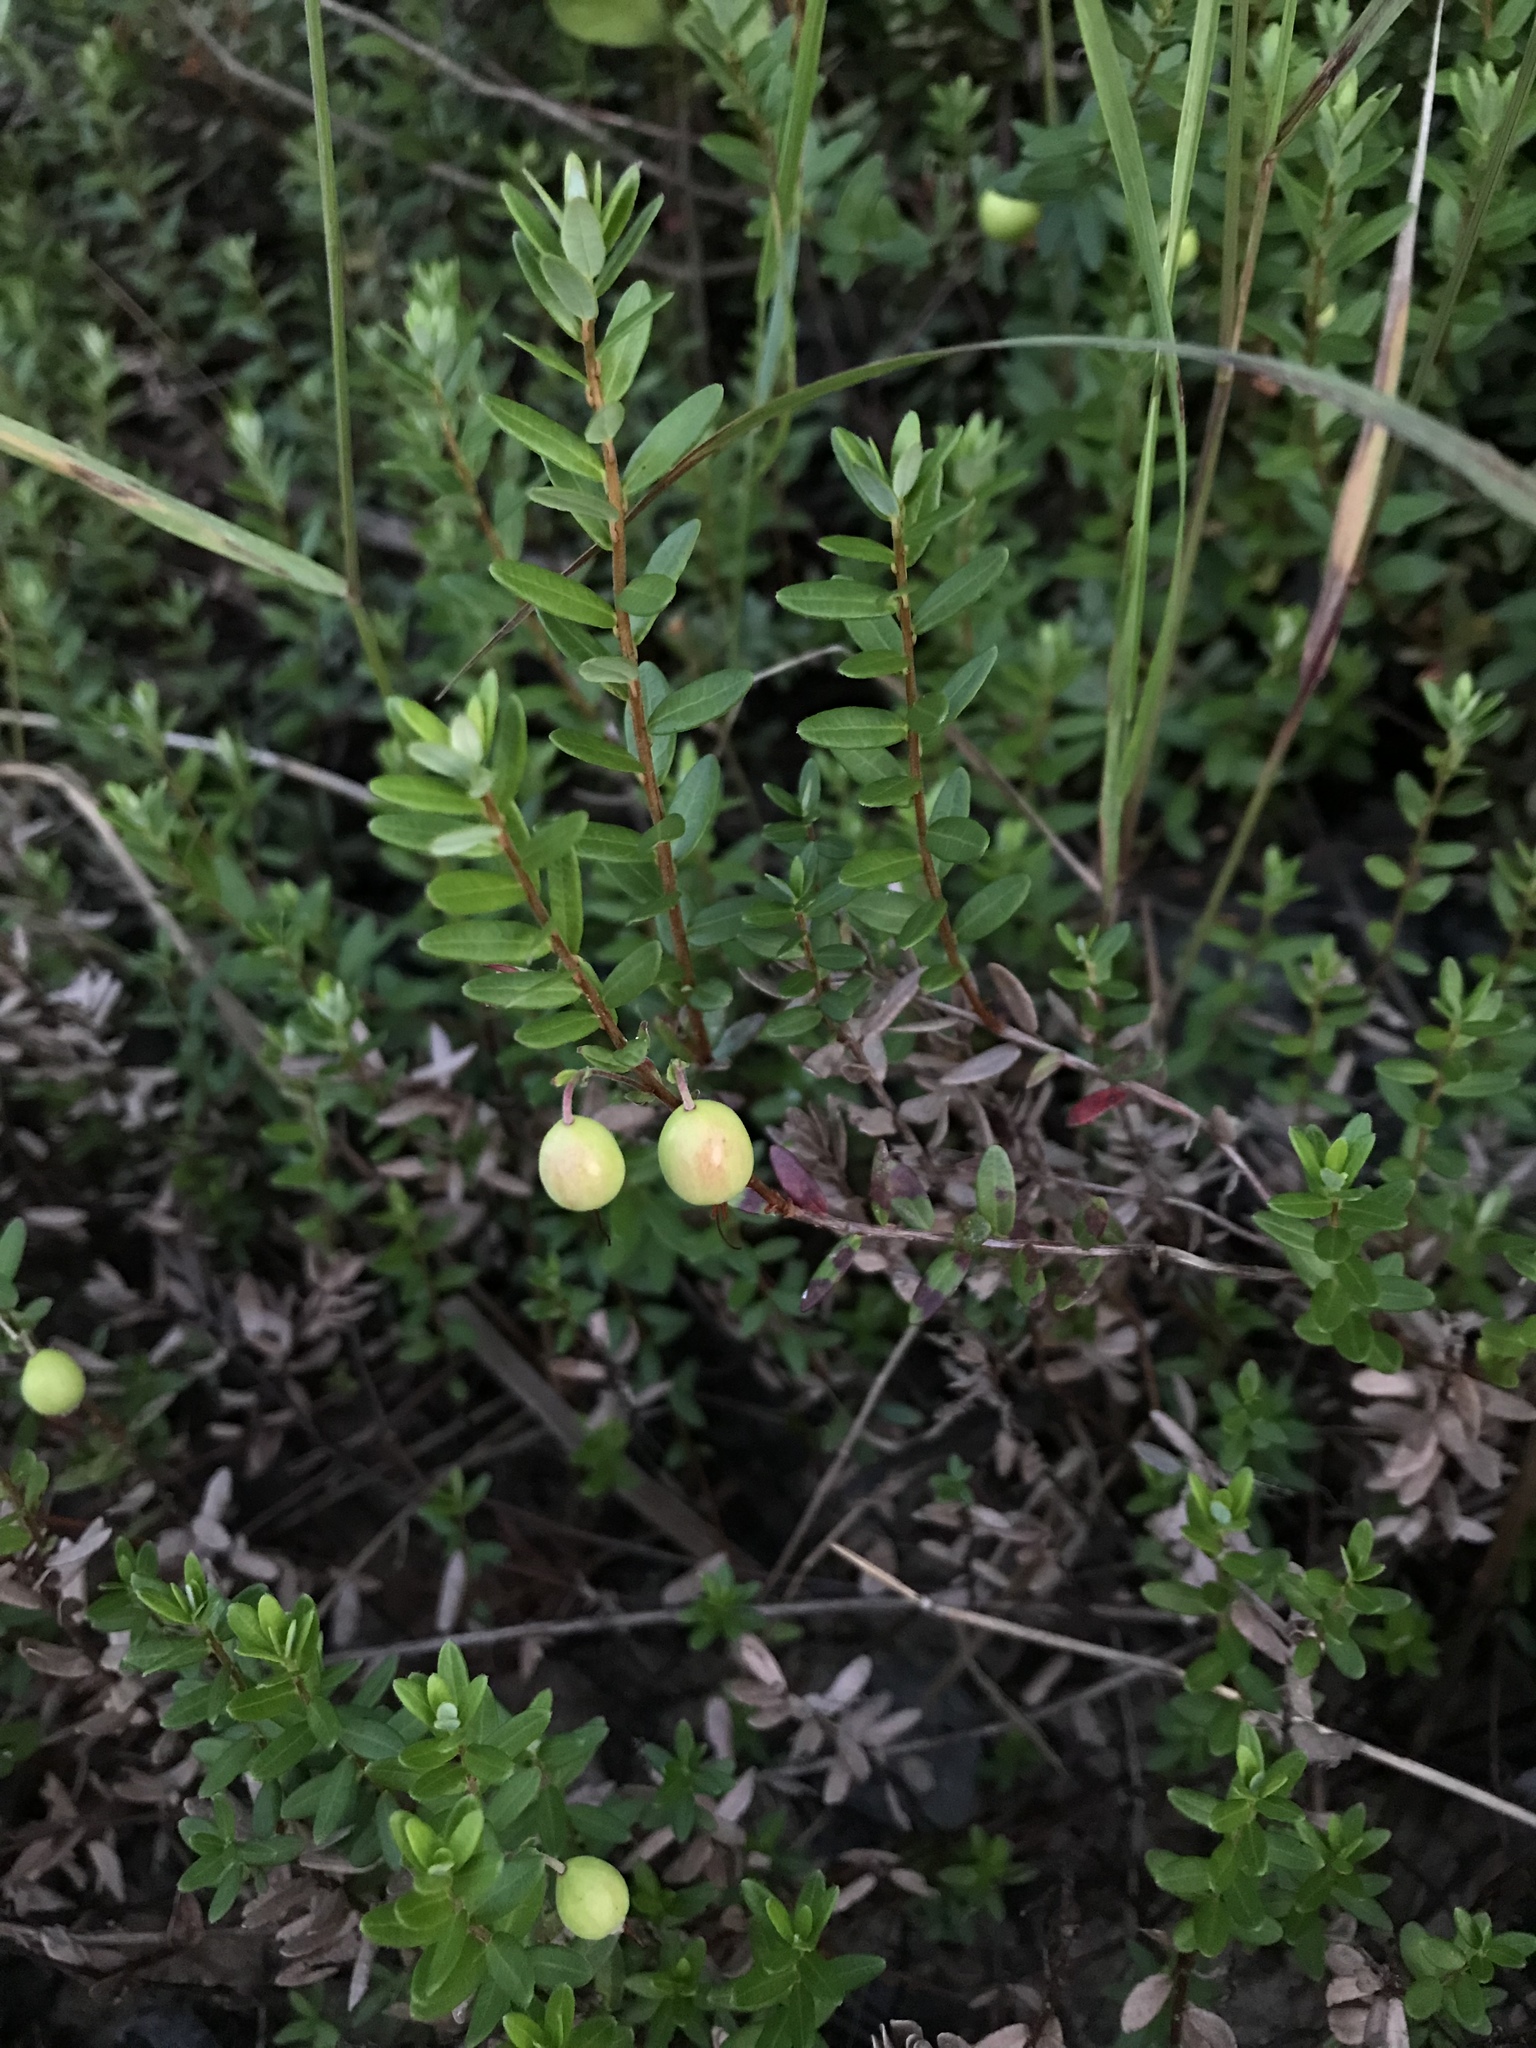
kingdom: Plantae
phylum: Tracheophyta
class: Magnoliopsida
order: Ericales
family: Ericaceae
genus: Vaccinium
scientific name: Vaccinium macrocarpon
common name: American cranberry
